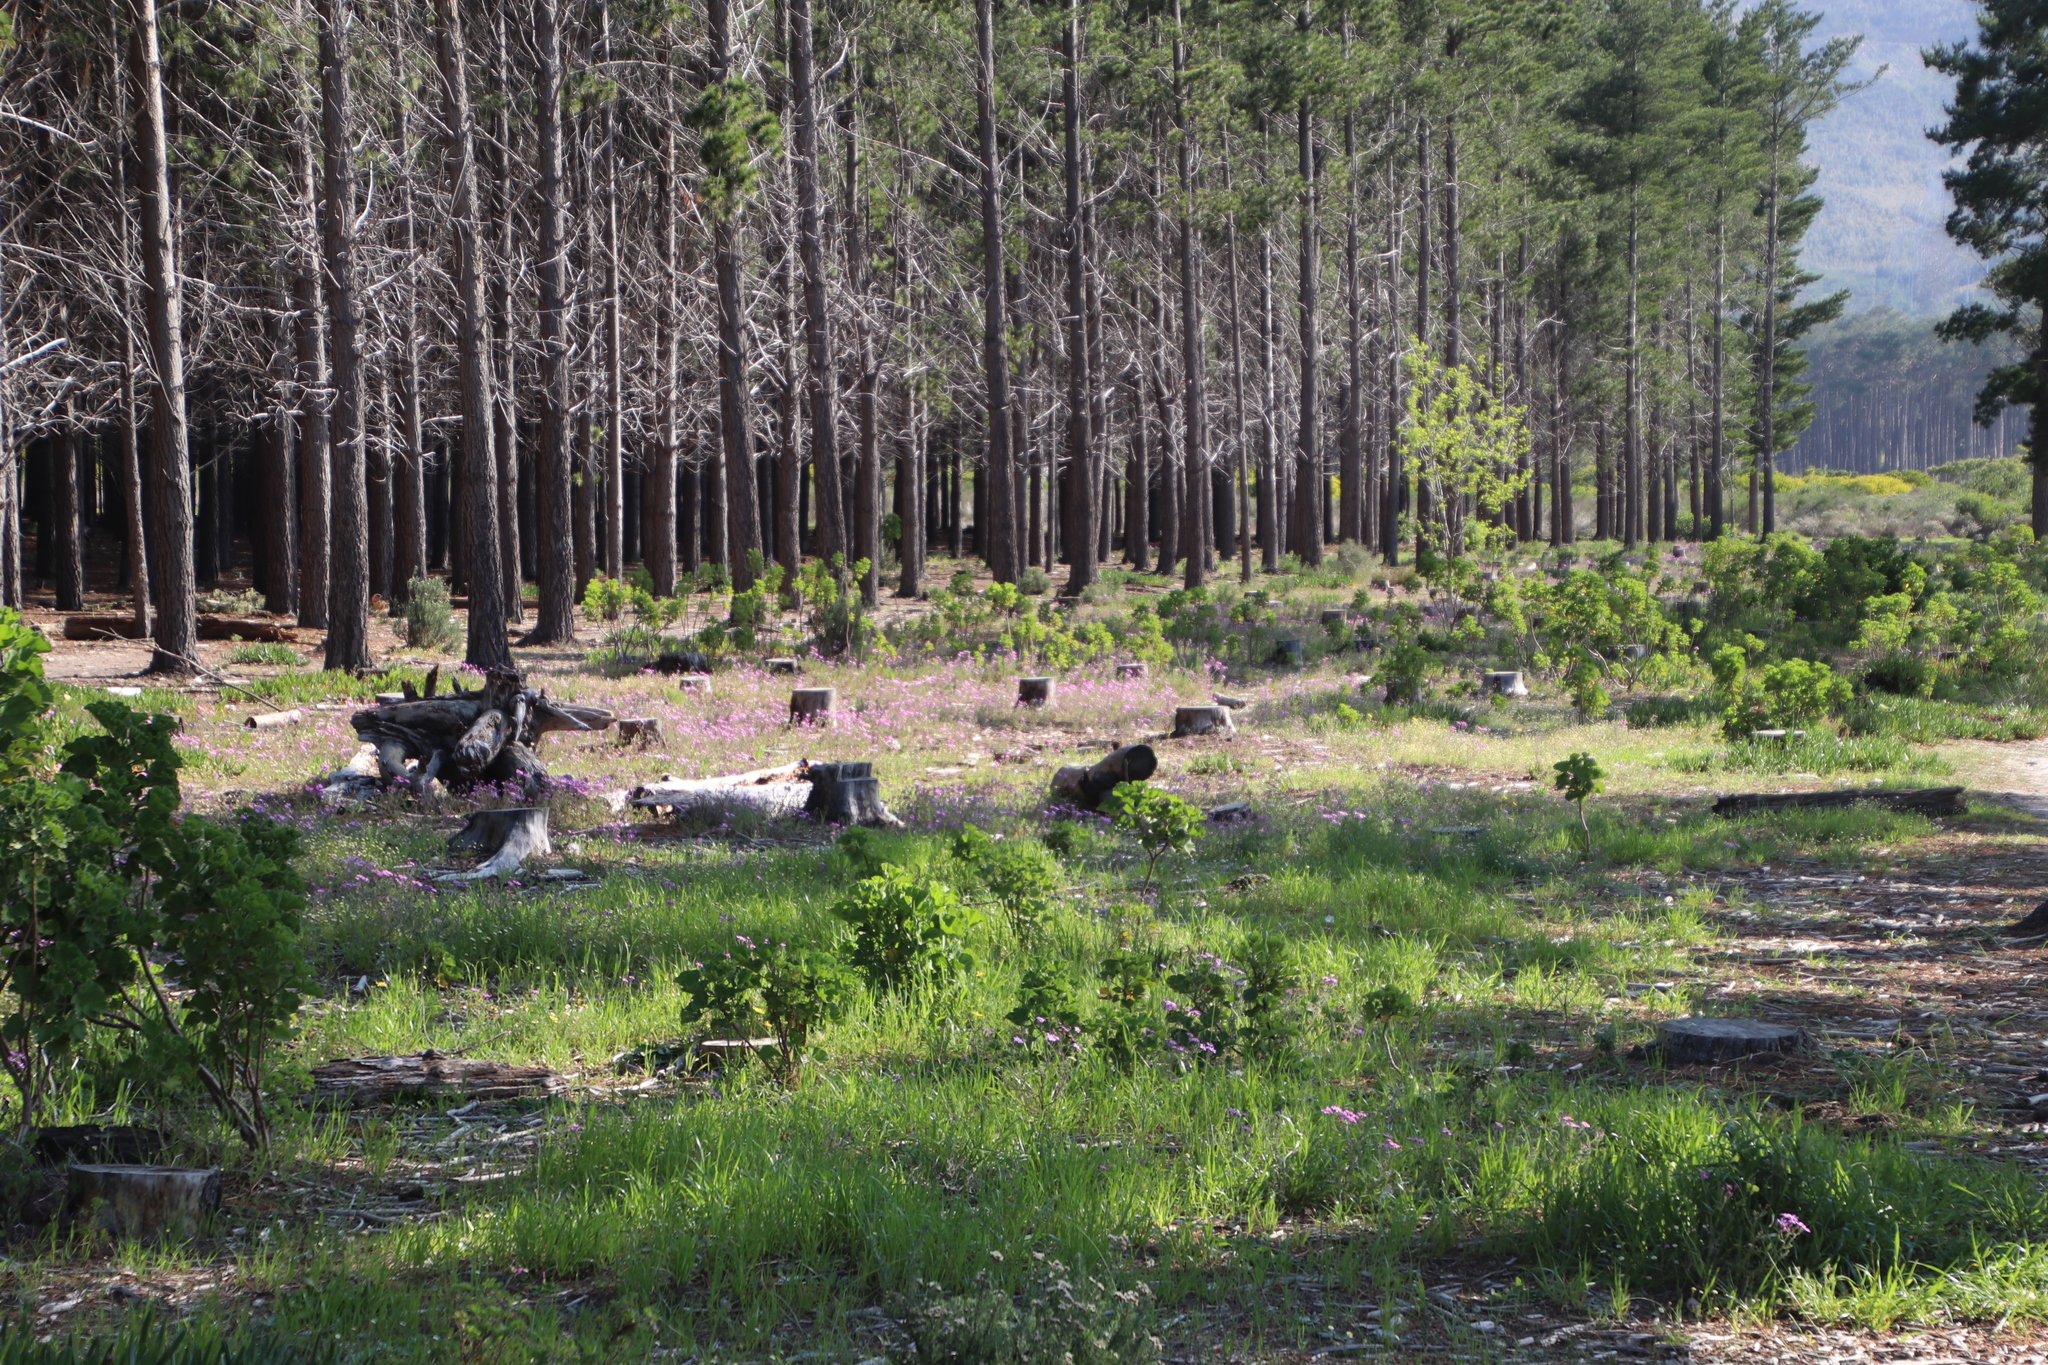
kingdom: Plantae
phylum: Tracheophyta
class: Liliopsida
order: Poales
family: Poaceae
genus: Briza
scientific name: Briza maxima
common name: Big quakinggrass
